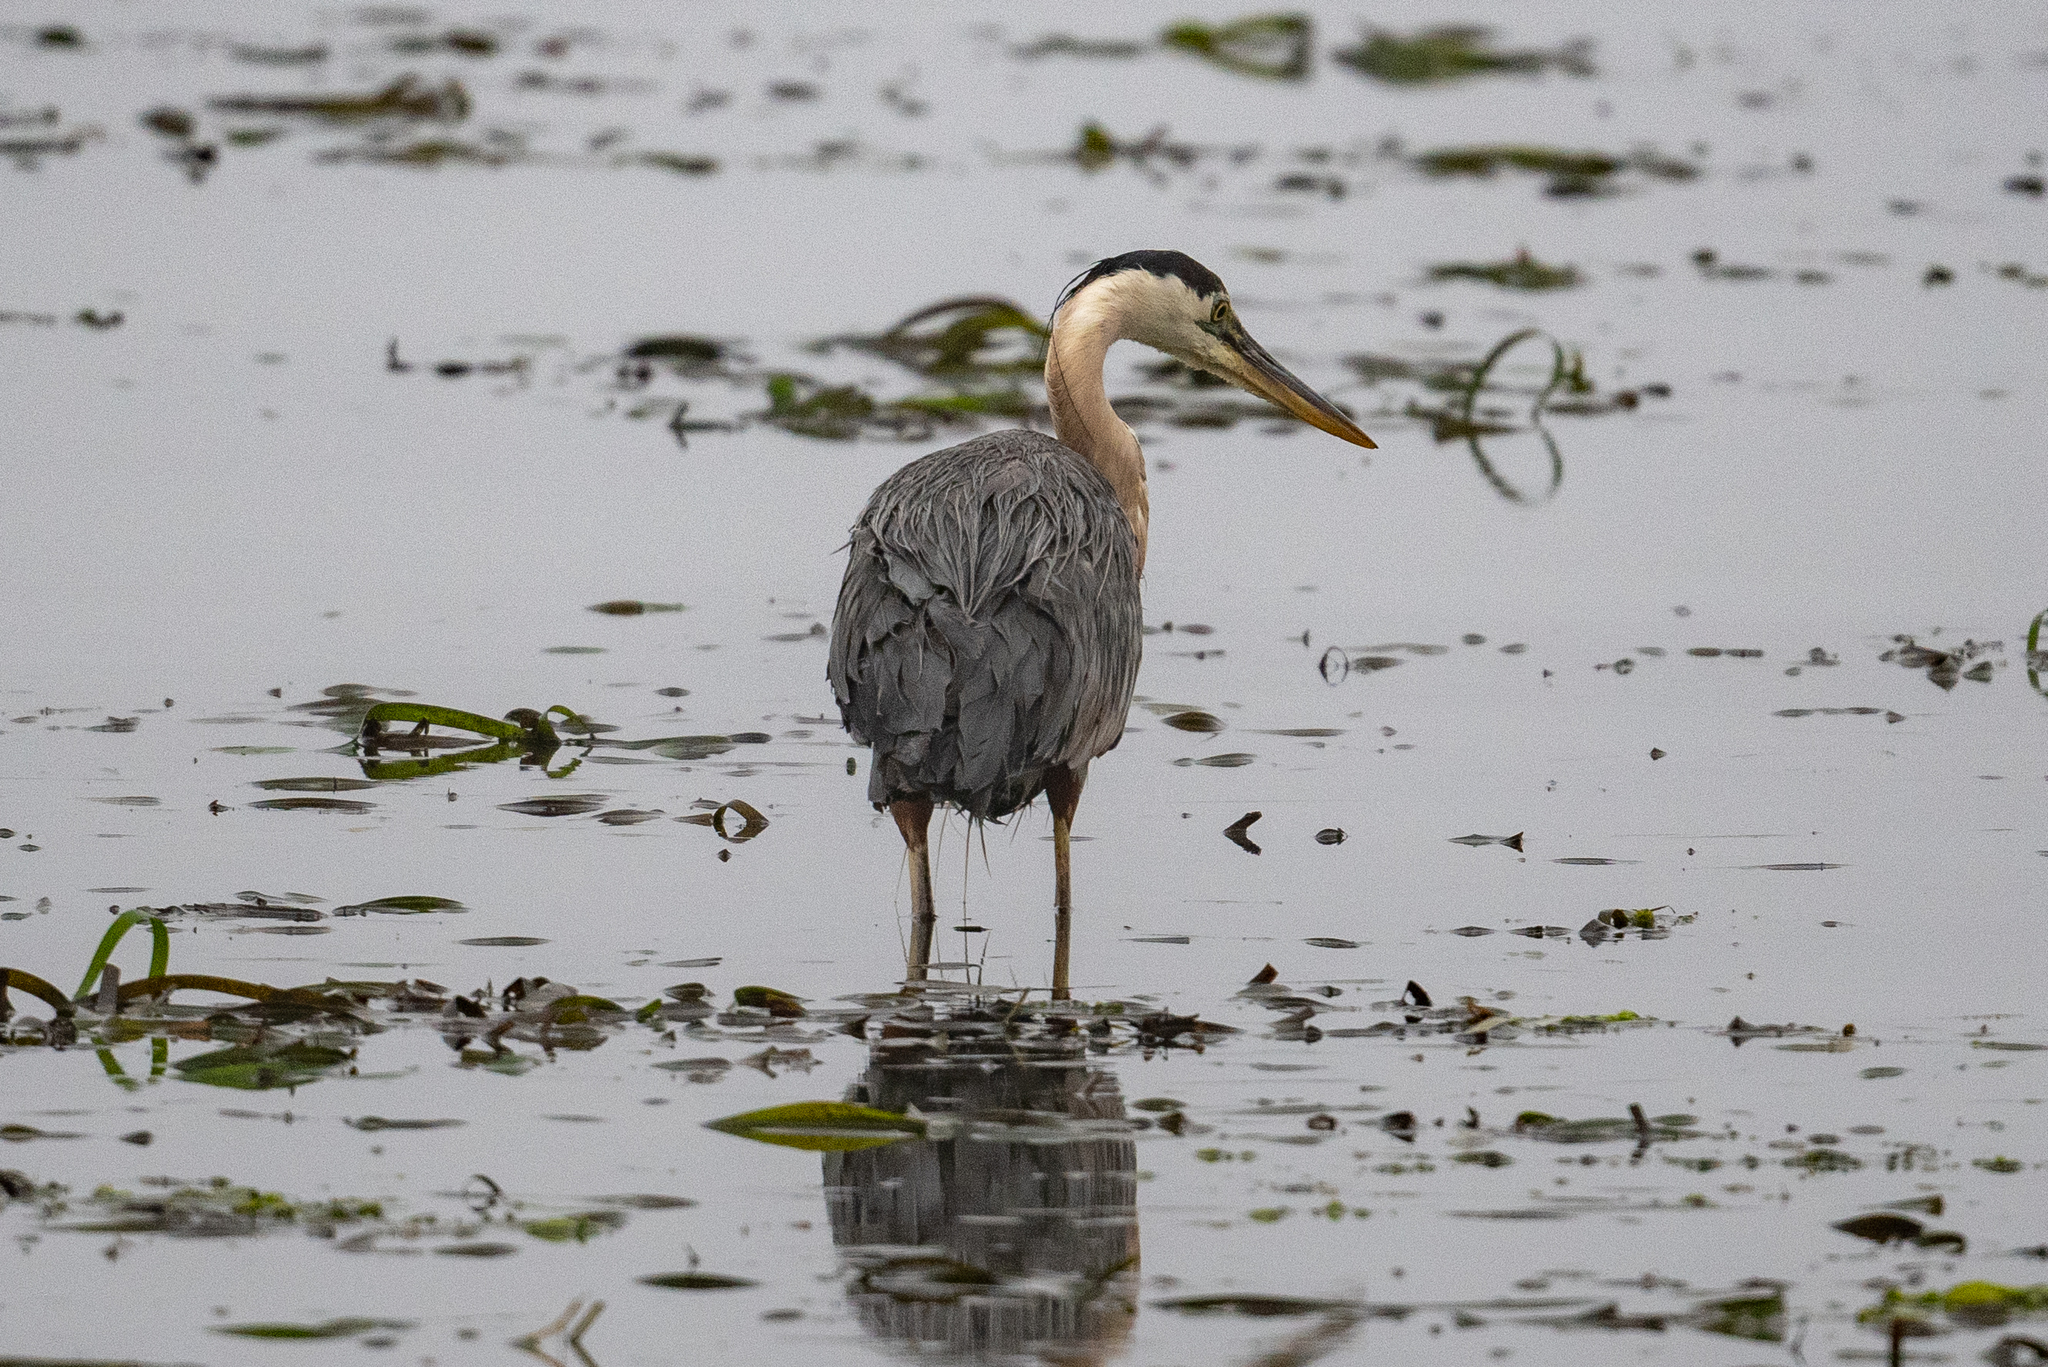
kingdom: Animalia
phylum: Chordata
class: Aves
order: Pelecaniformes
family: Ardeidae
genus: Ardea
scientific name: Ardea herodias
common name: Great blue heron
